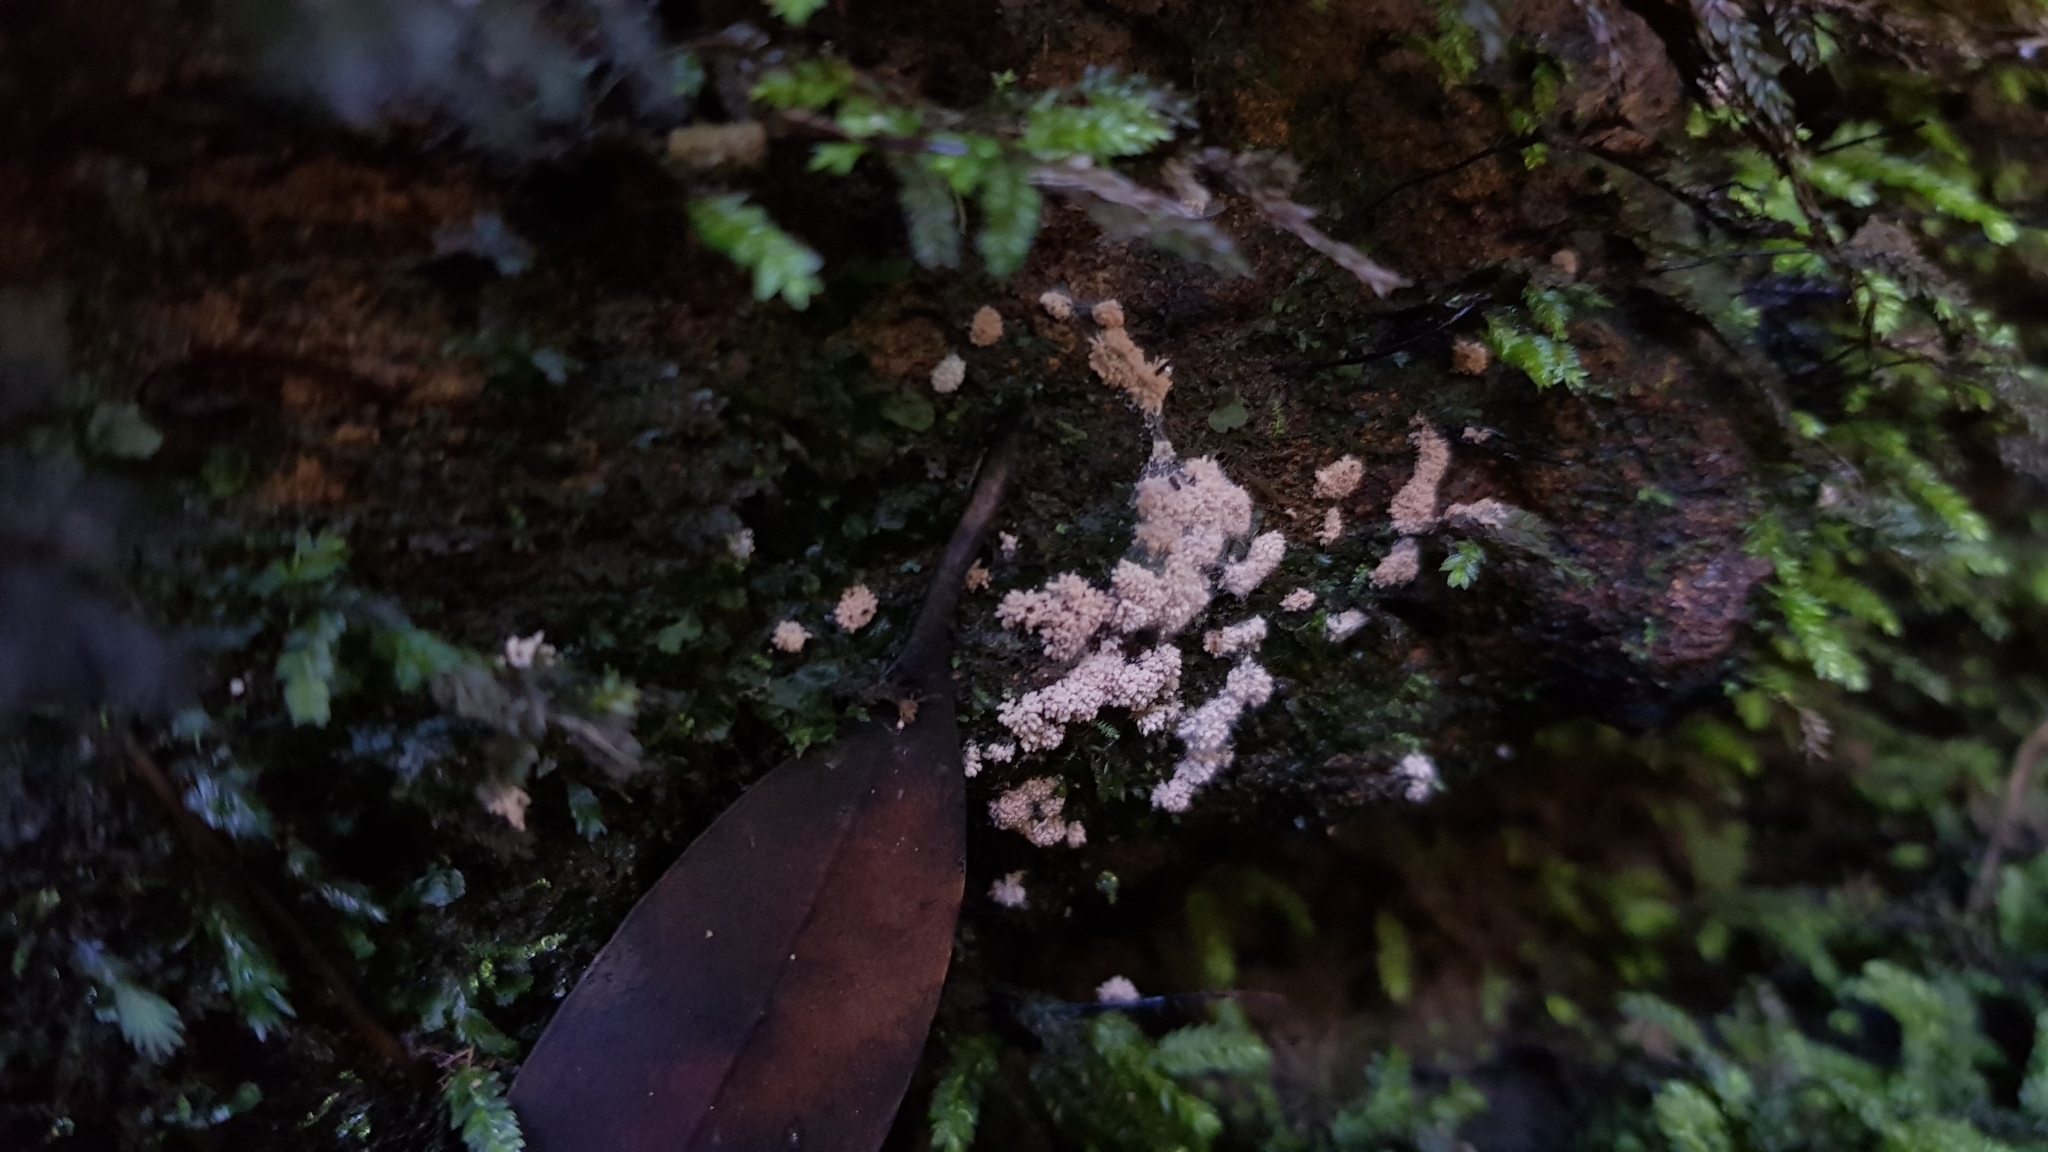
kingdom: Fungi
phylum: Ascomycota
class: Pezizomycetes
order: Pezizales
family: Pezizaceae
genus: Chromelosporiopsis
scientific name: Chromelosporiopsis carnea
